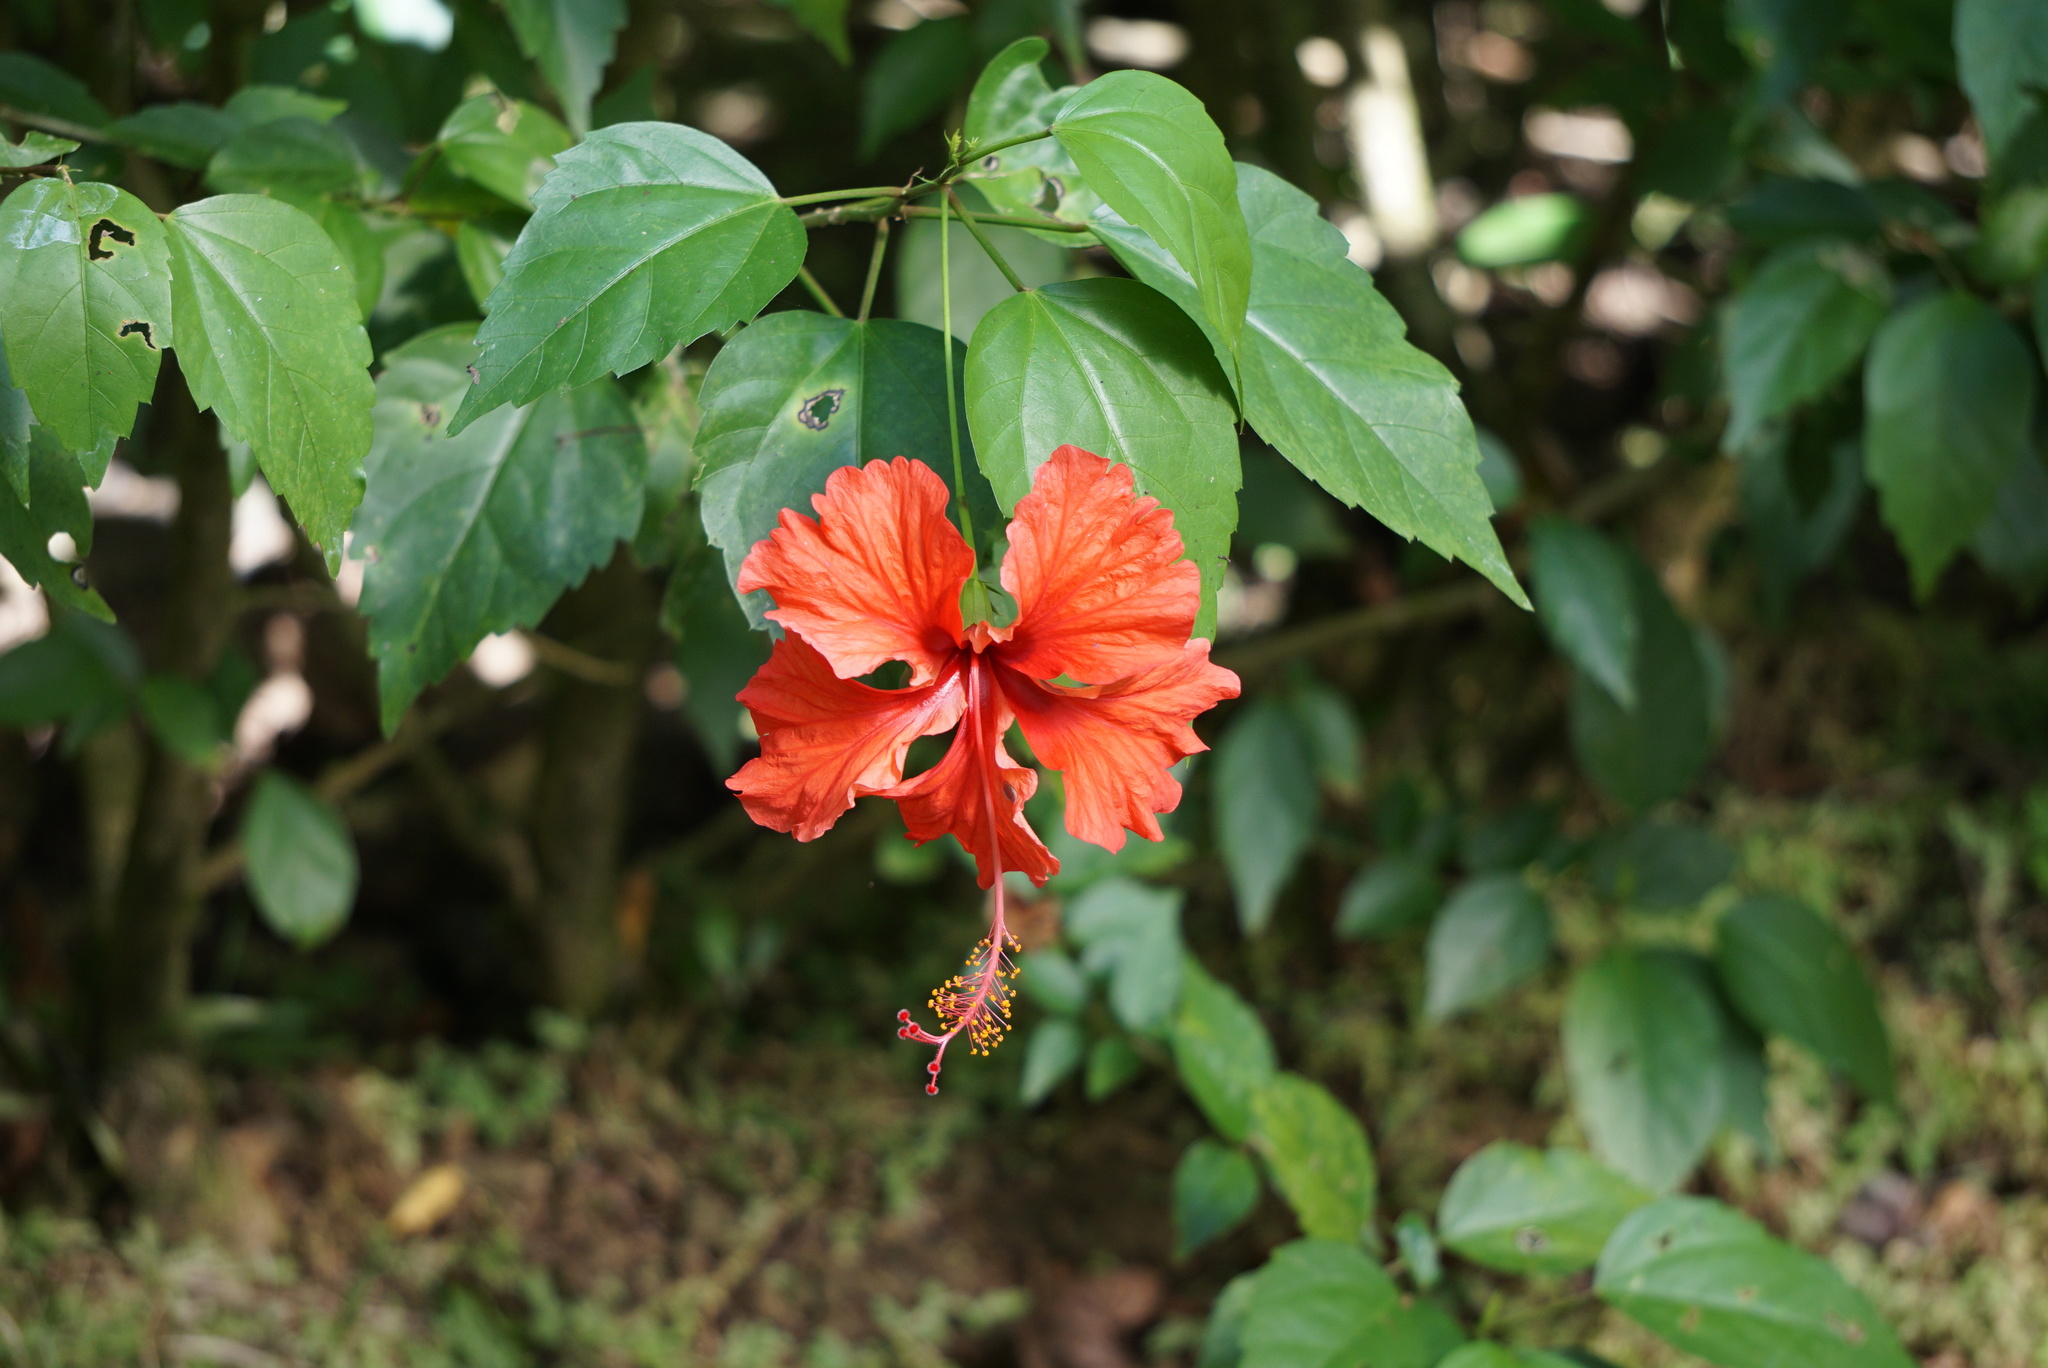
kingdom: Plantae
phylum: Tracheophyta
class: Magnoliopsida
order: Malvales
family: Malvaceae
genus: Hibiscus
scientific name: Hibiscus archeri
